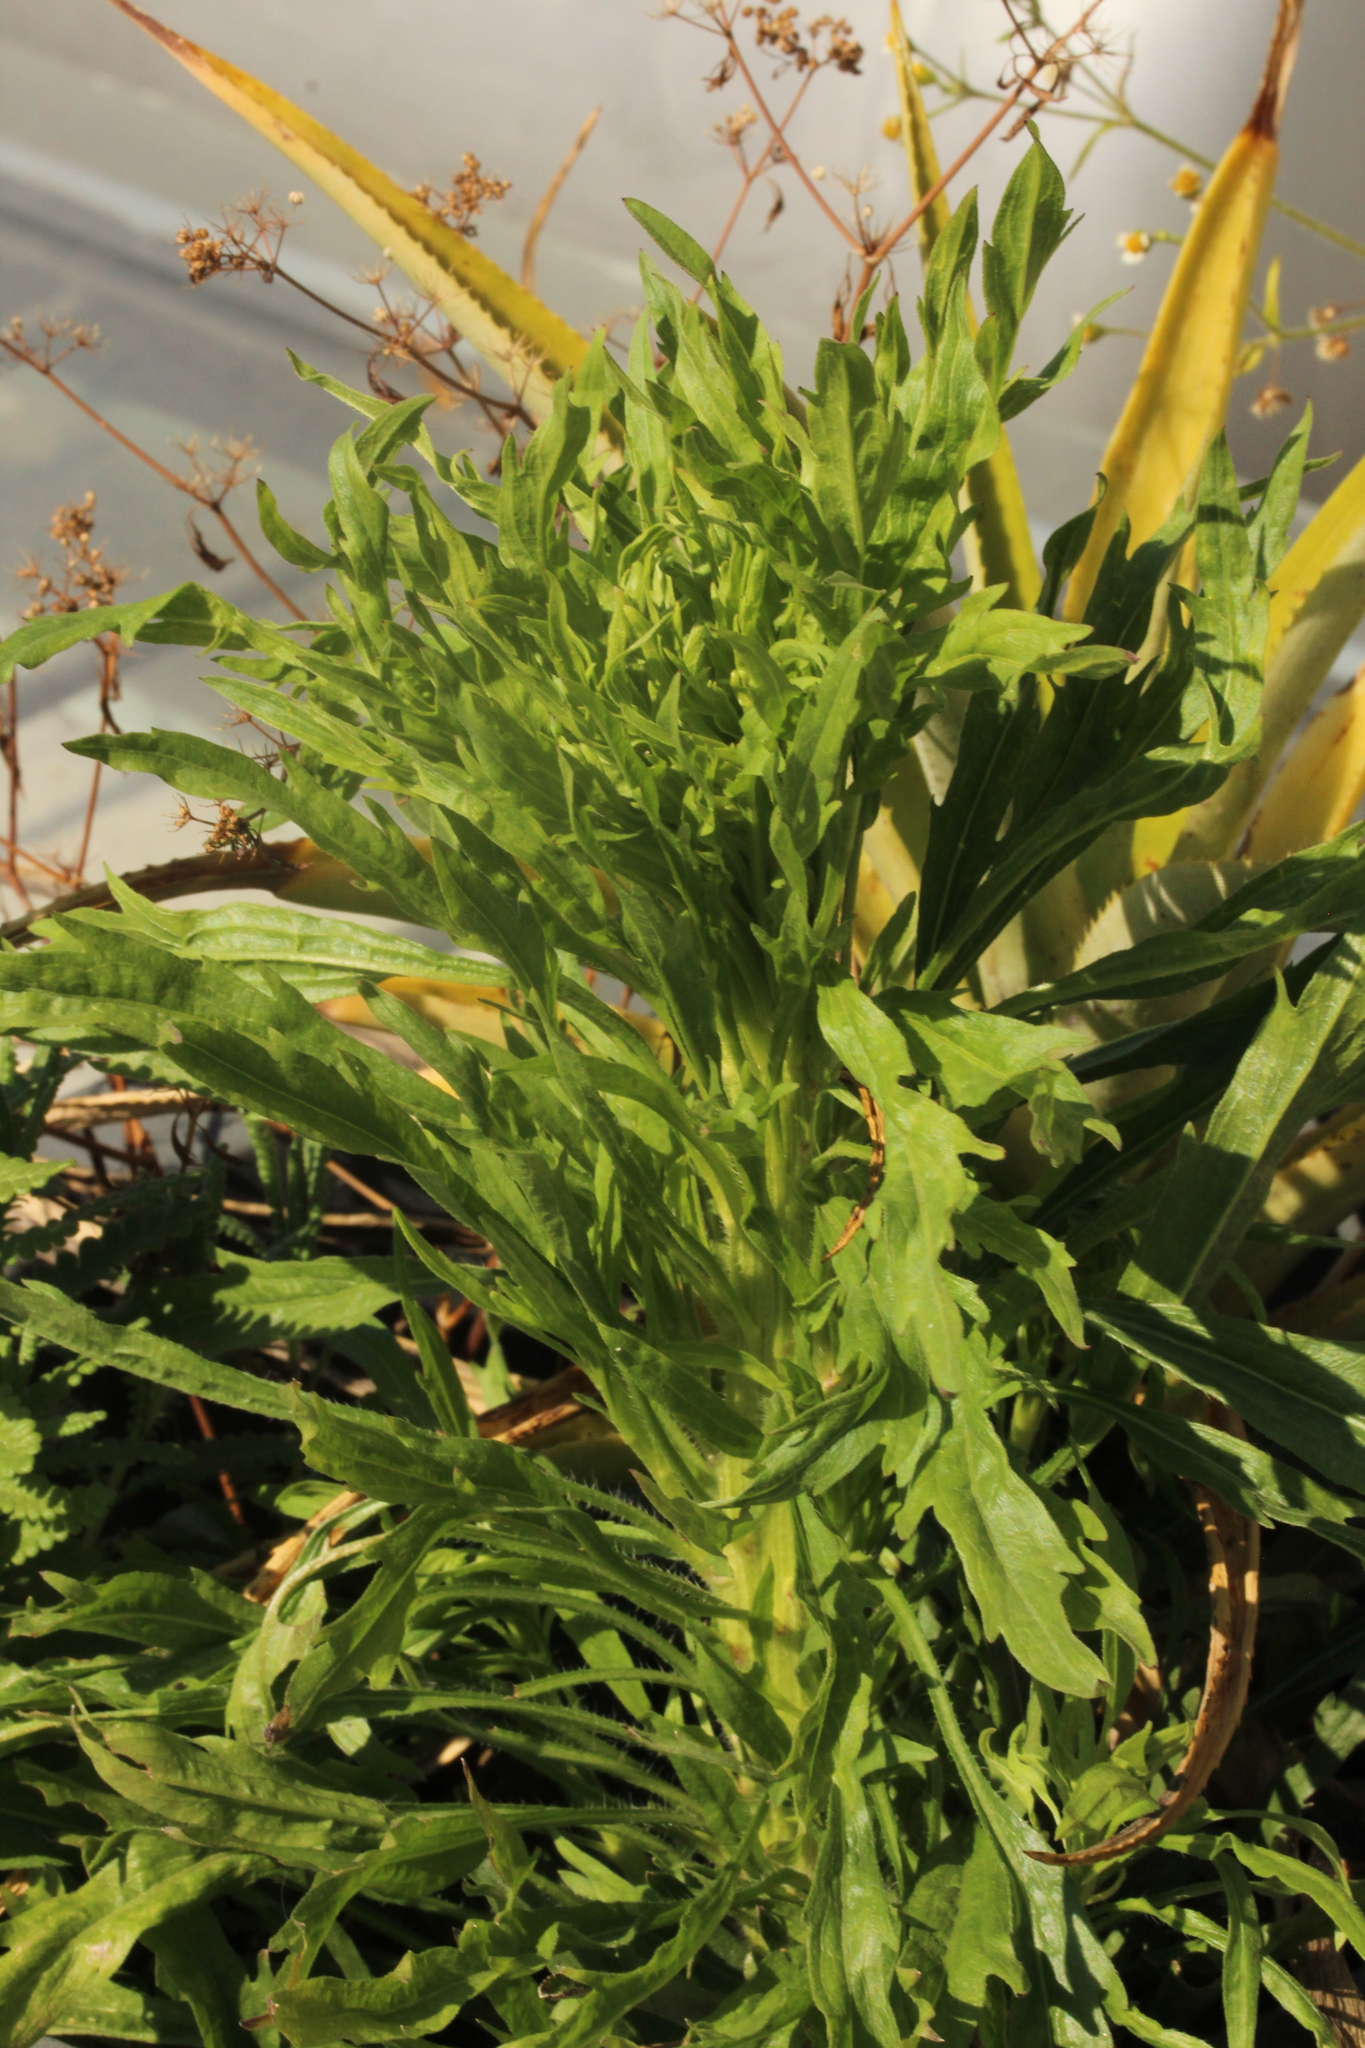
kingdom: Plantae
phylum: Tracheophyta
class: Magnoliopsida
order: Asterales
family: Asteraceae
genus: Erigeron
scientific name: Erigeron
